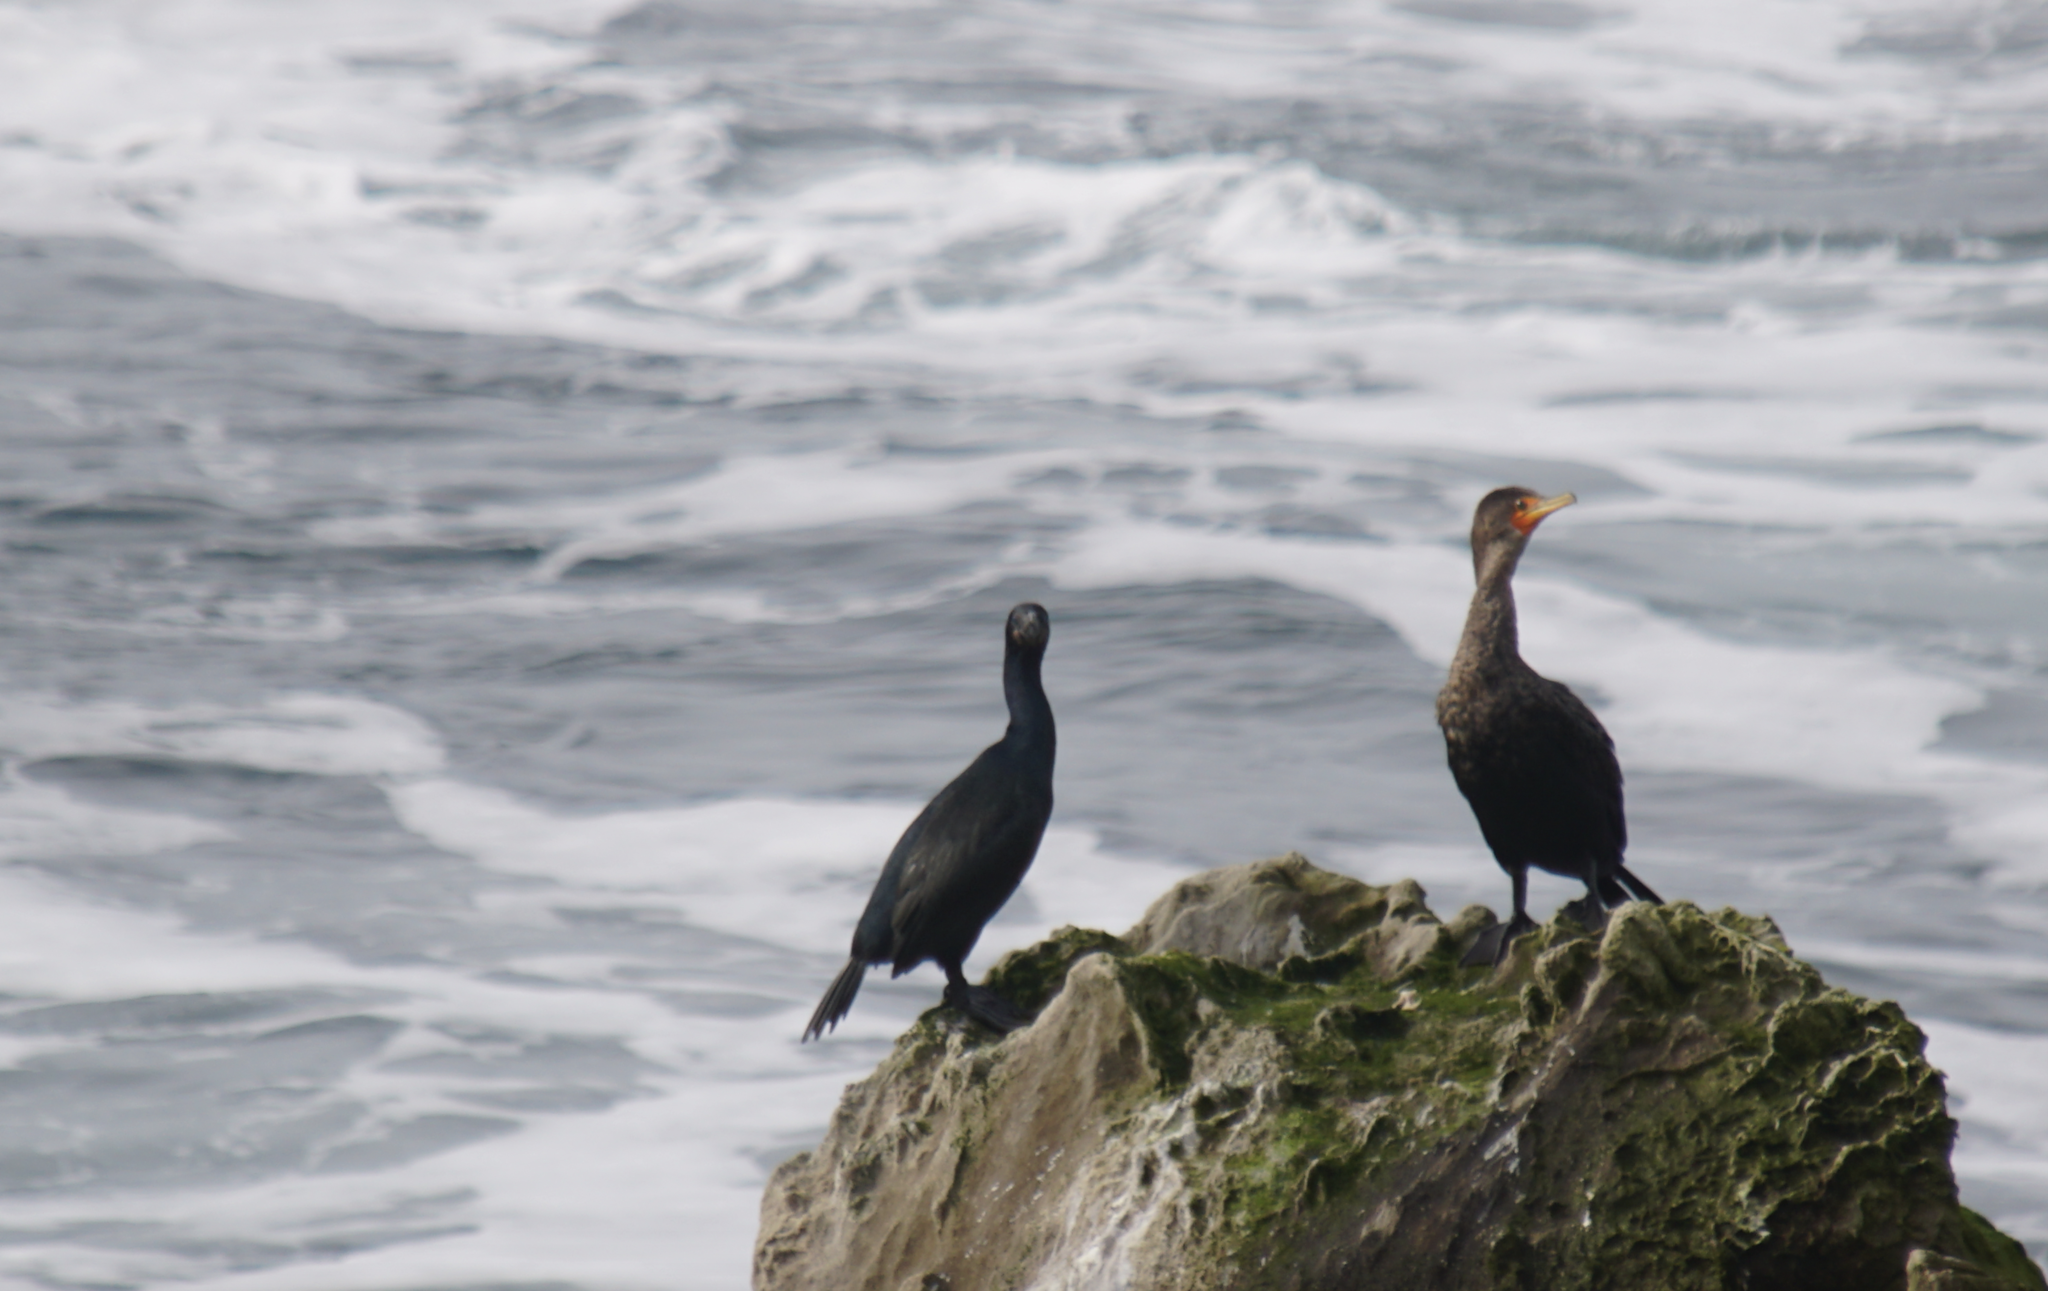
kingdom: Animalia
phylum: Chordata
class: Aves
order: Suliformes
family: Phalacrocoracidae
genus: Phalacrocorax
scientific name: Phalacrocorax auritus
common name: Double-crested cormorant
